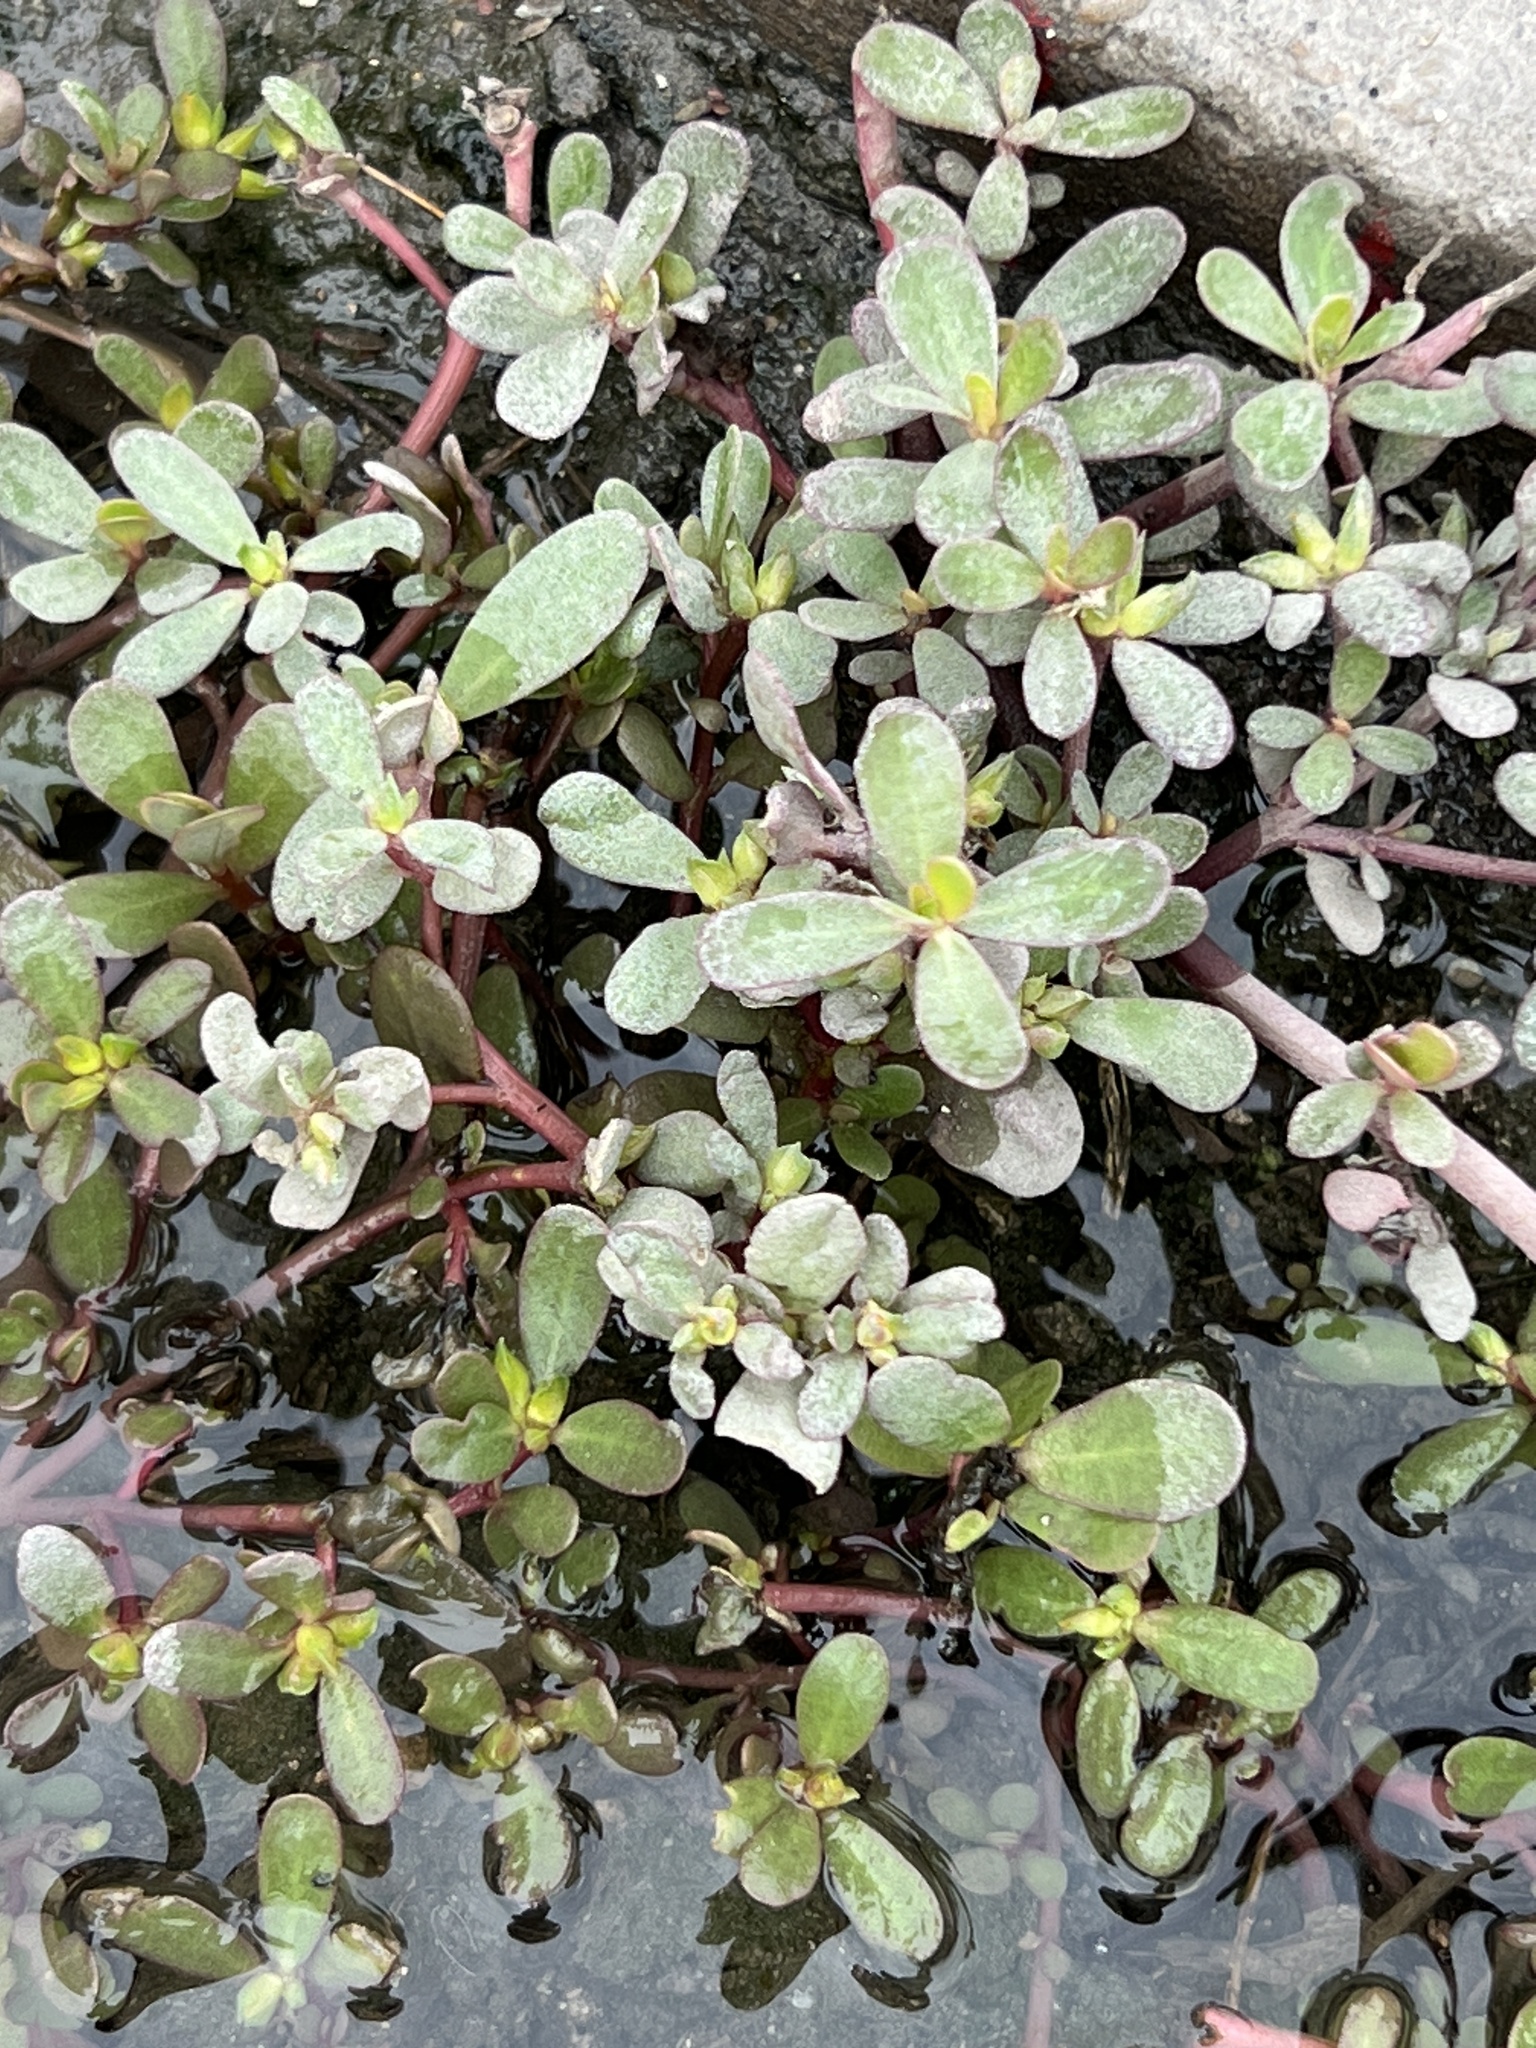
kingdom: Plantae
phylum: Tracheophyta
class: Magnoliopsida
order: Caryophyllales
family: Portulacaceae
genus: Portulaca
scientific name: Portulaca oleracea
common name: Common purslane
